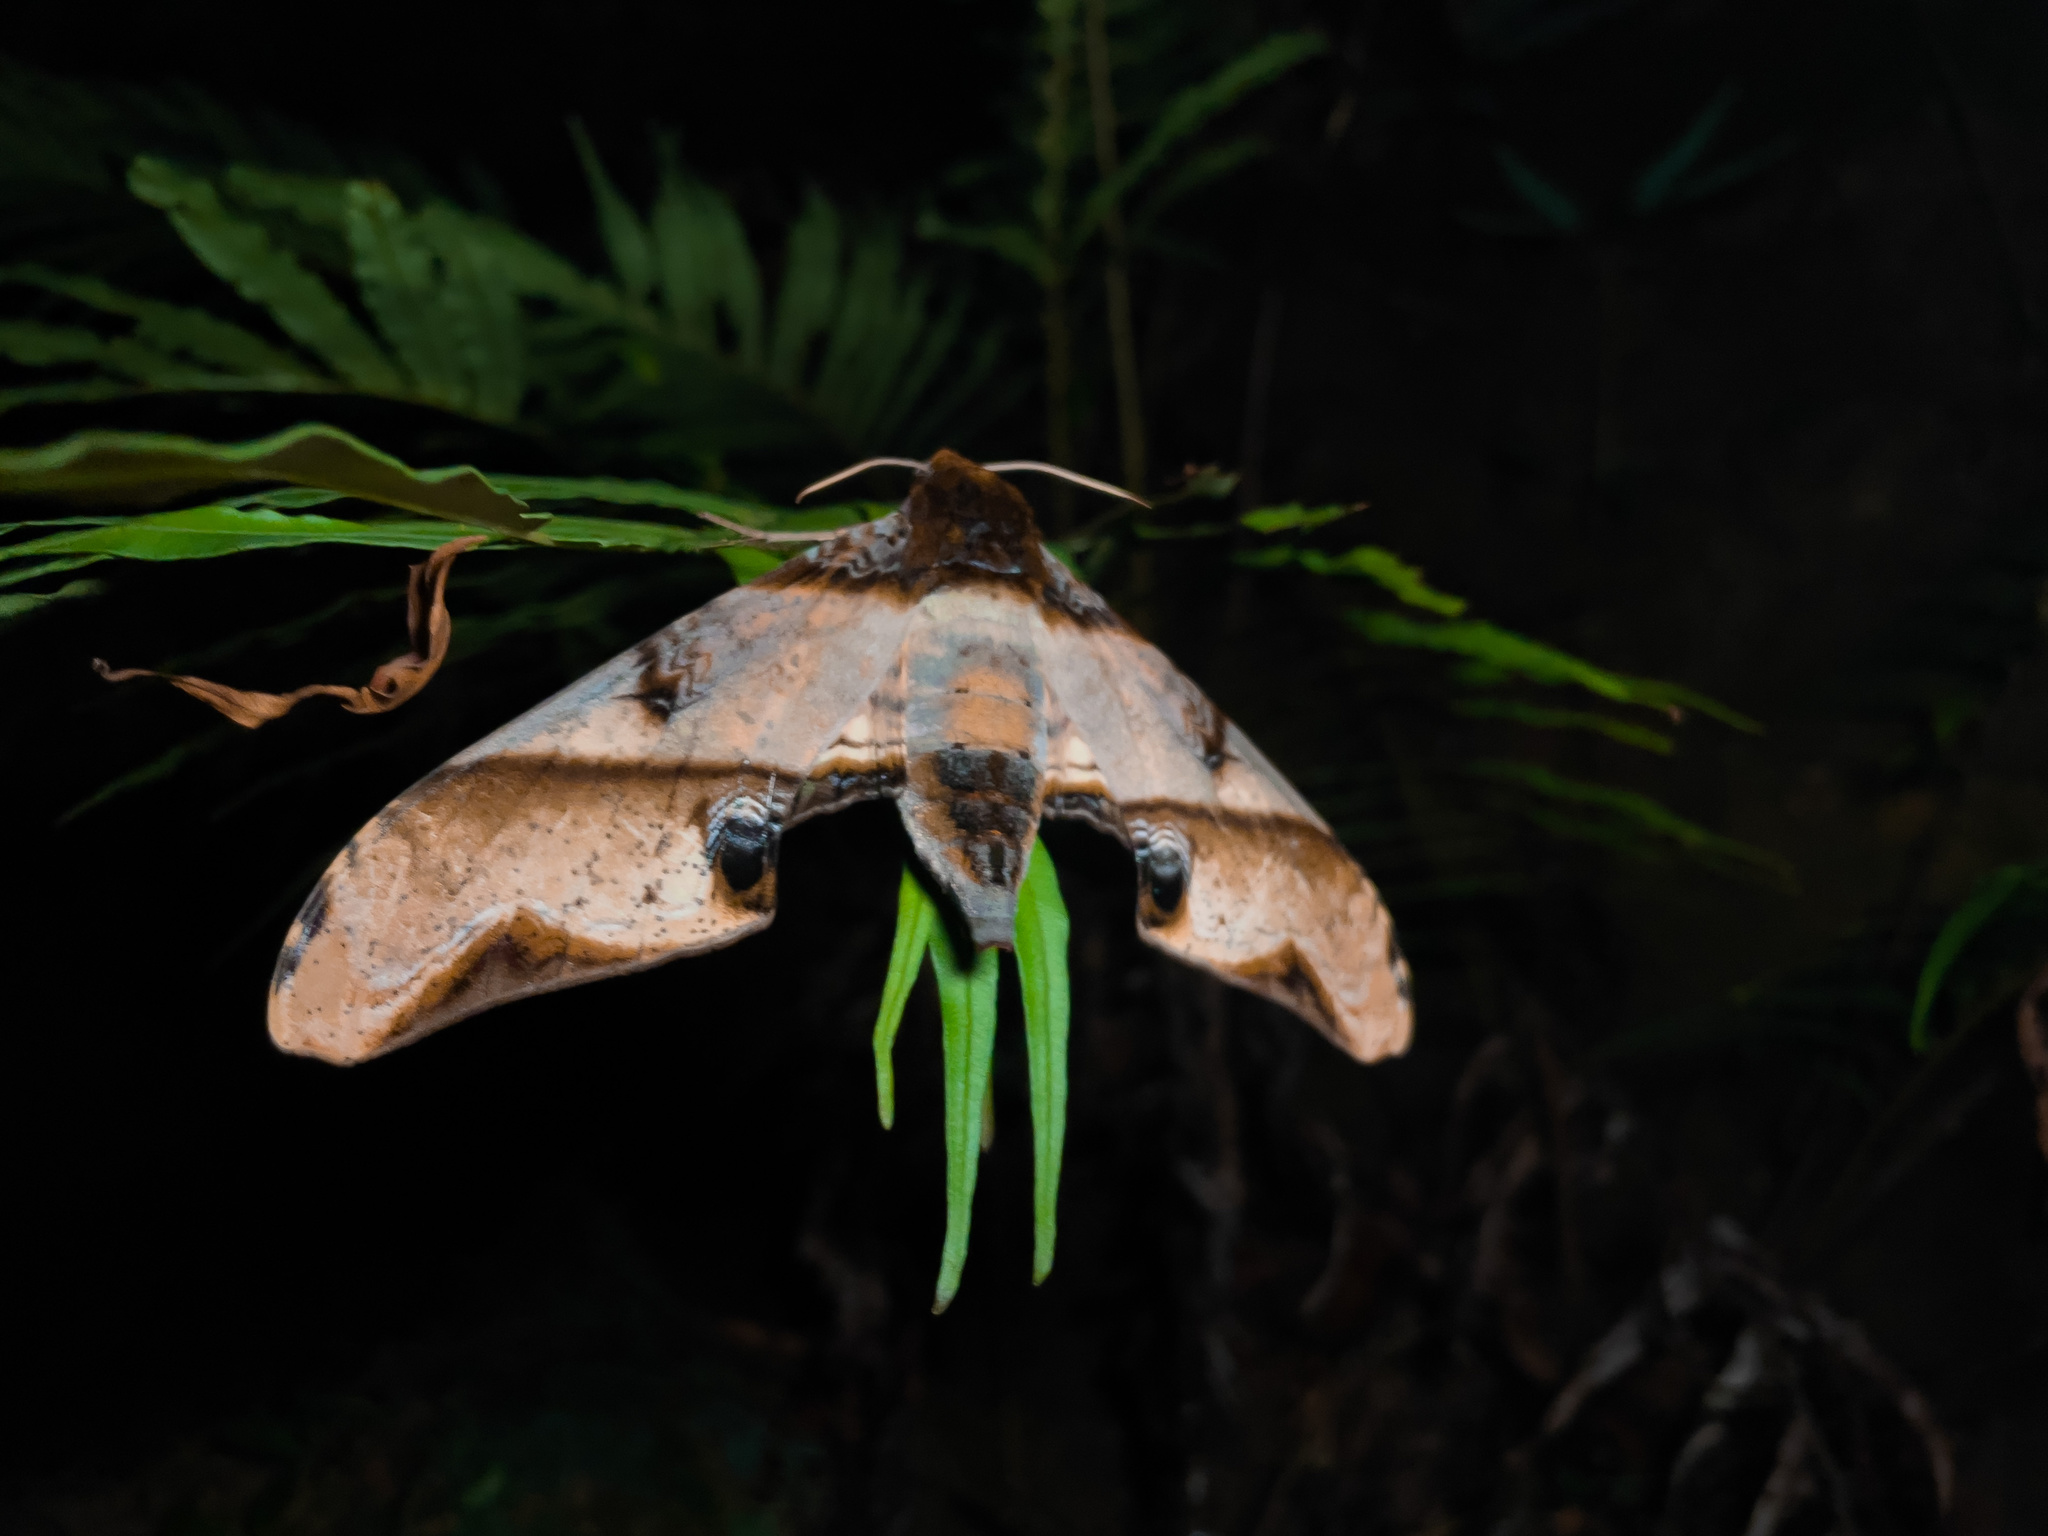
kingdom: Animalia
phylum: Arthropoda
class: Insecta
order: Lepidoptera
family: Sphingidae
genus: Amplypterus
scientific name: Amplypterus panopus
